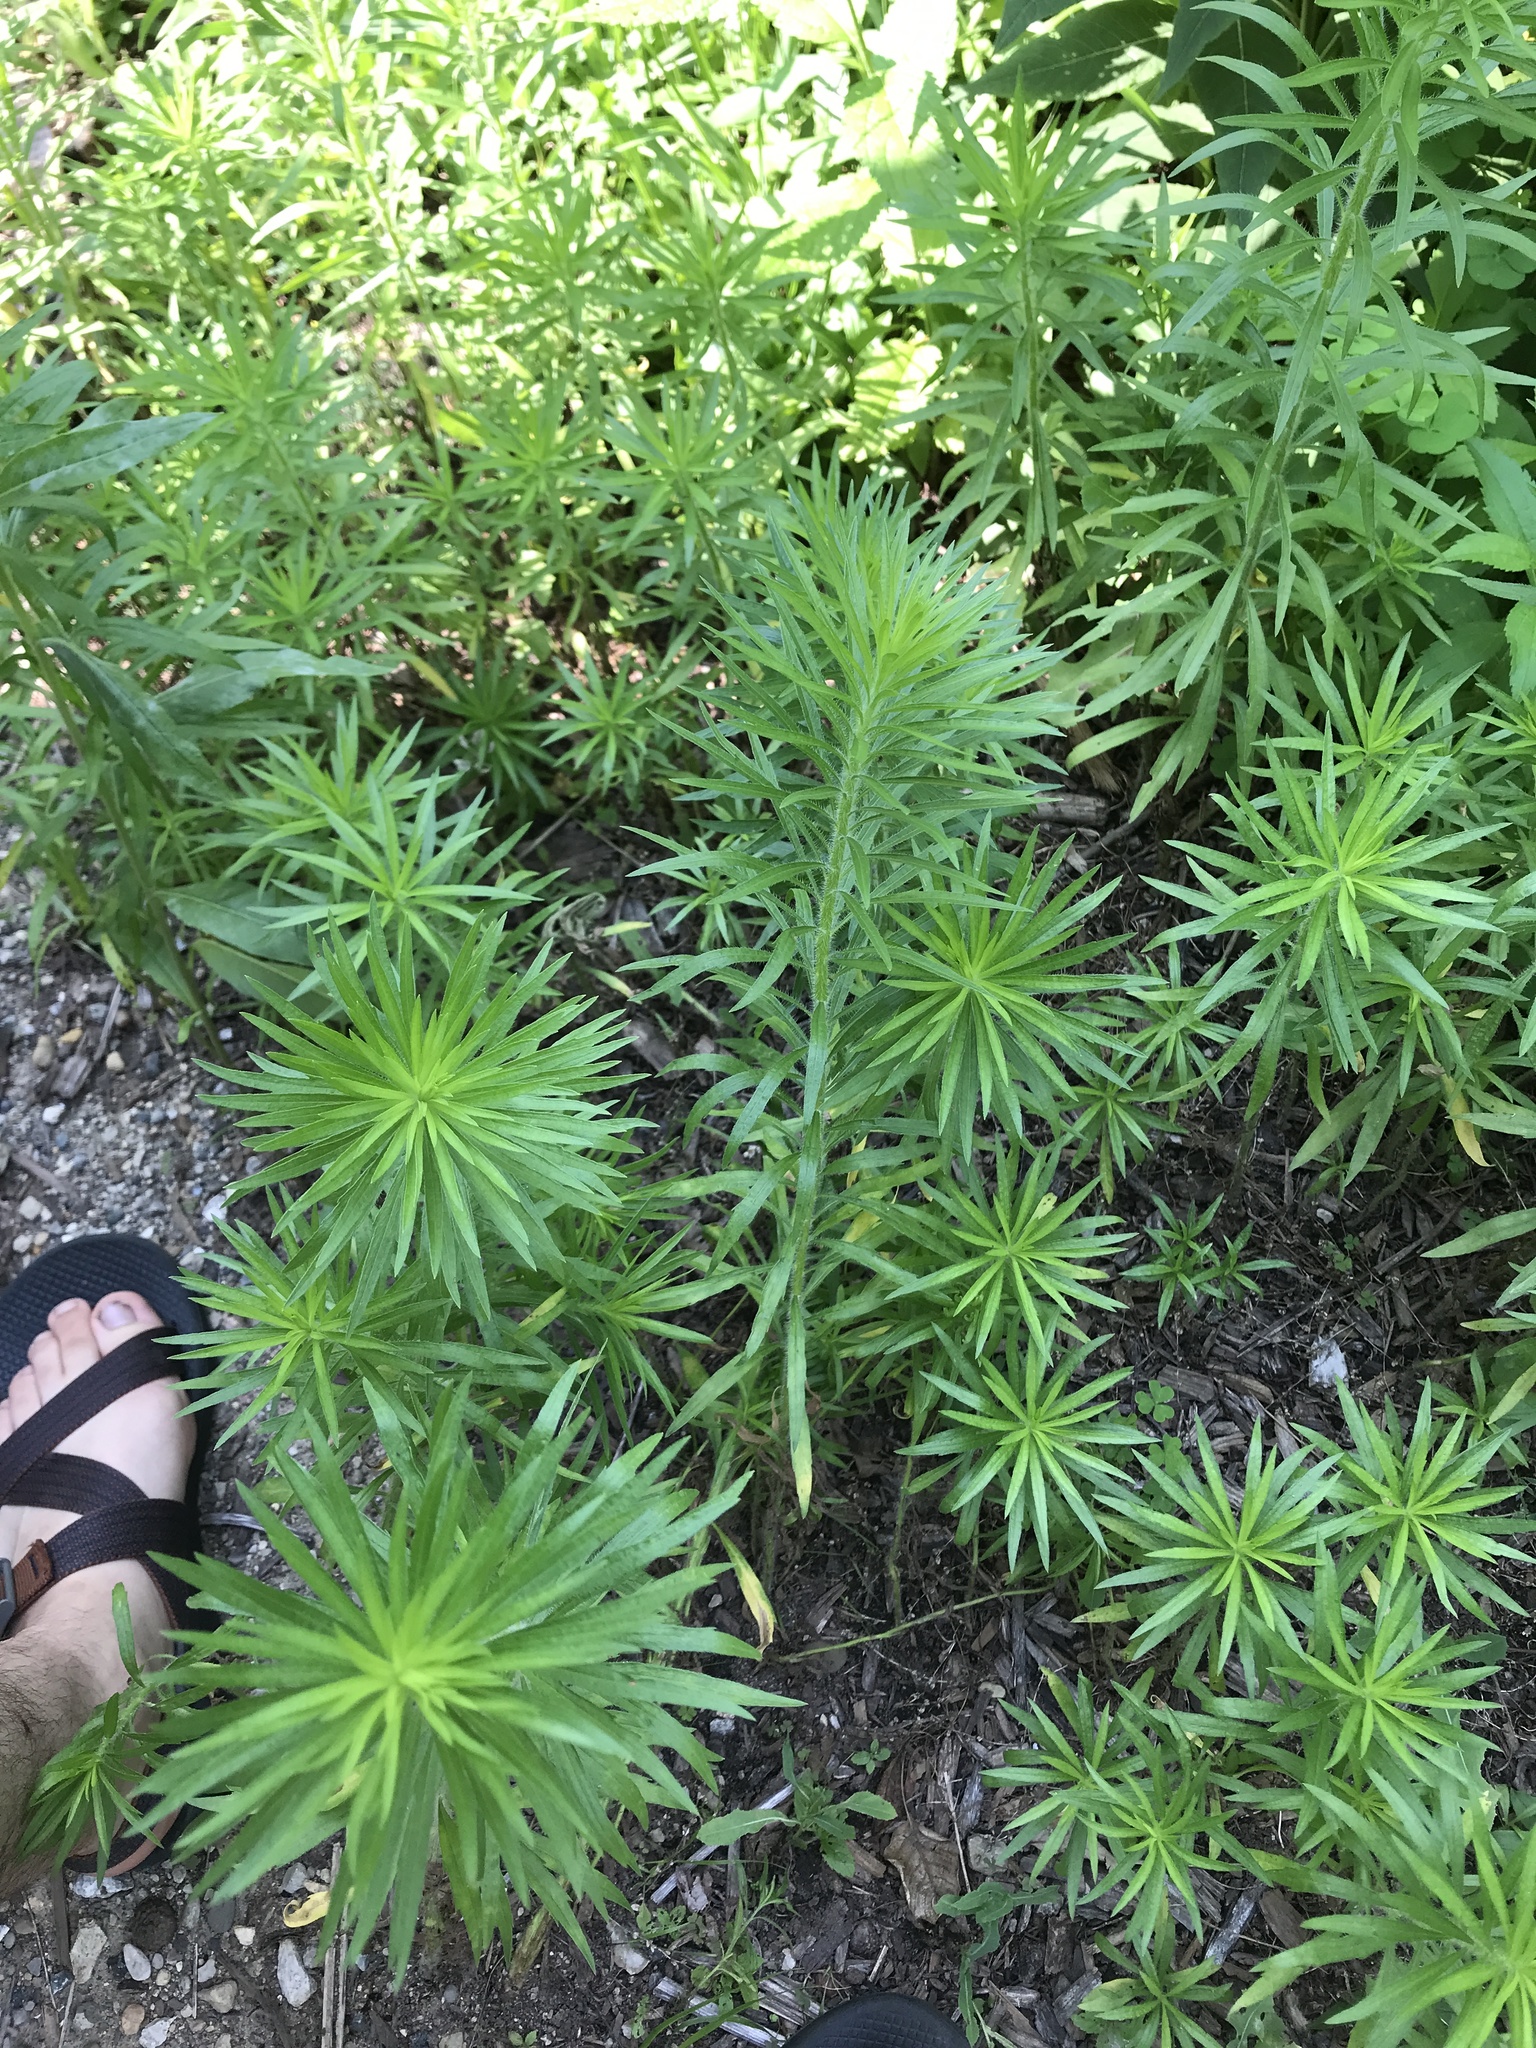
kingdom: Plantae
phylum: Tracheophyta
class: Magnoliopsida
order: Asterales
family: Asteraceae
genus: Erigeron
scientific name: Erigeron canadensis
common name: Canadian fleabane
